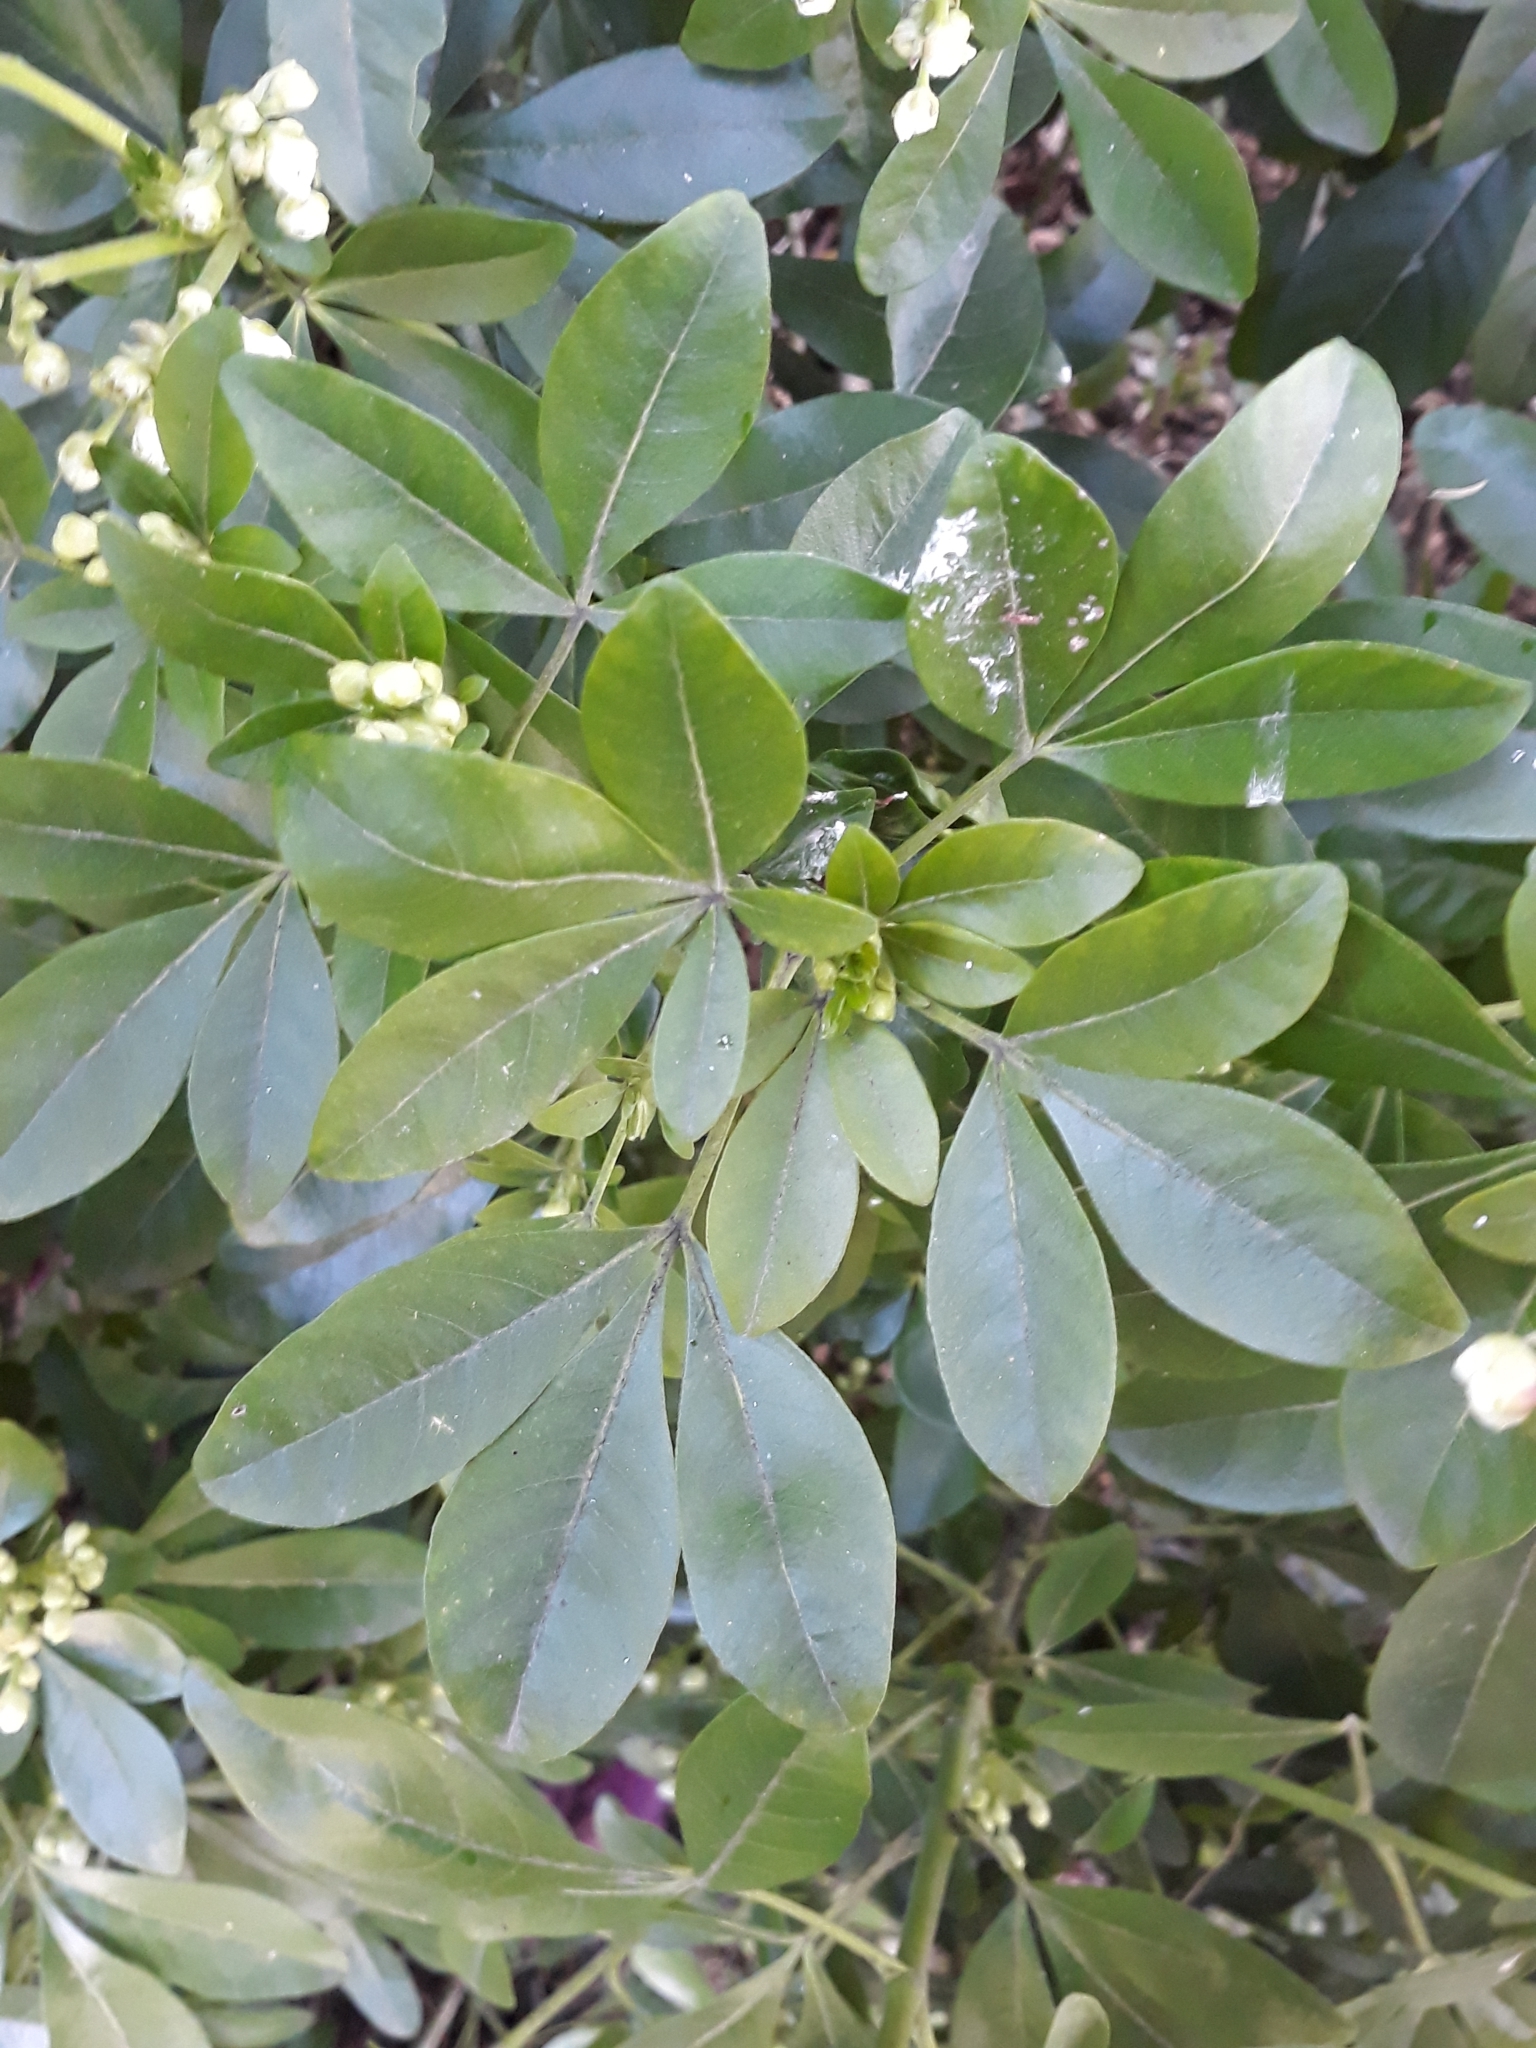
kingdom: Plantae
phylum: Tracheophyta
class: Magnoliopsida
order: Sapindales
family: Rutaceae
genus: Choisya
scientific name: Choisya ternata
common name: Mexican orange
